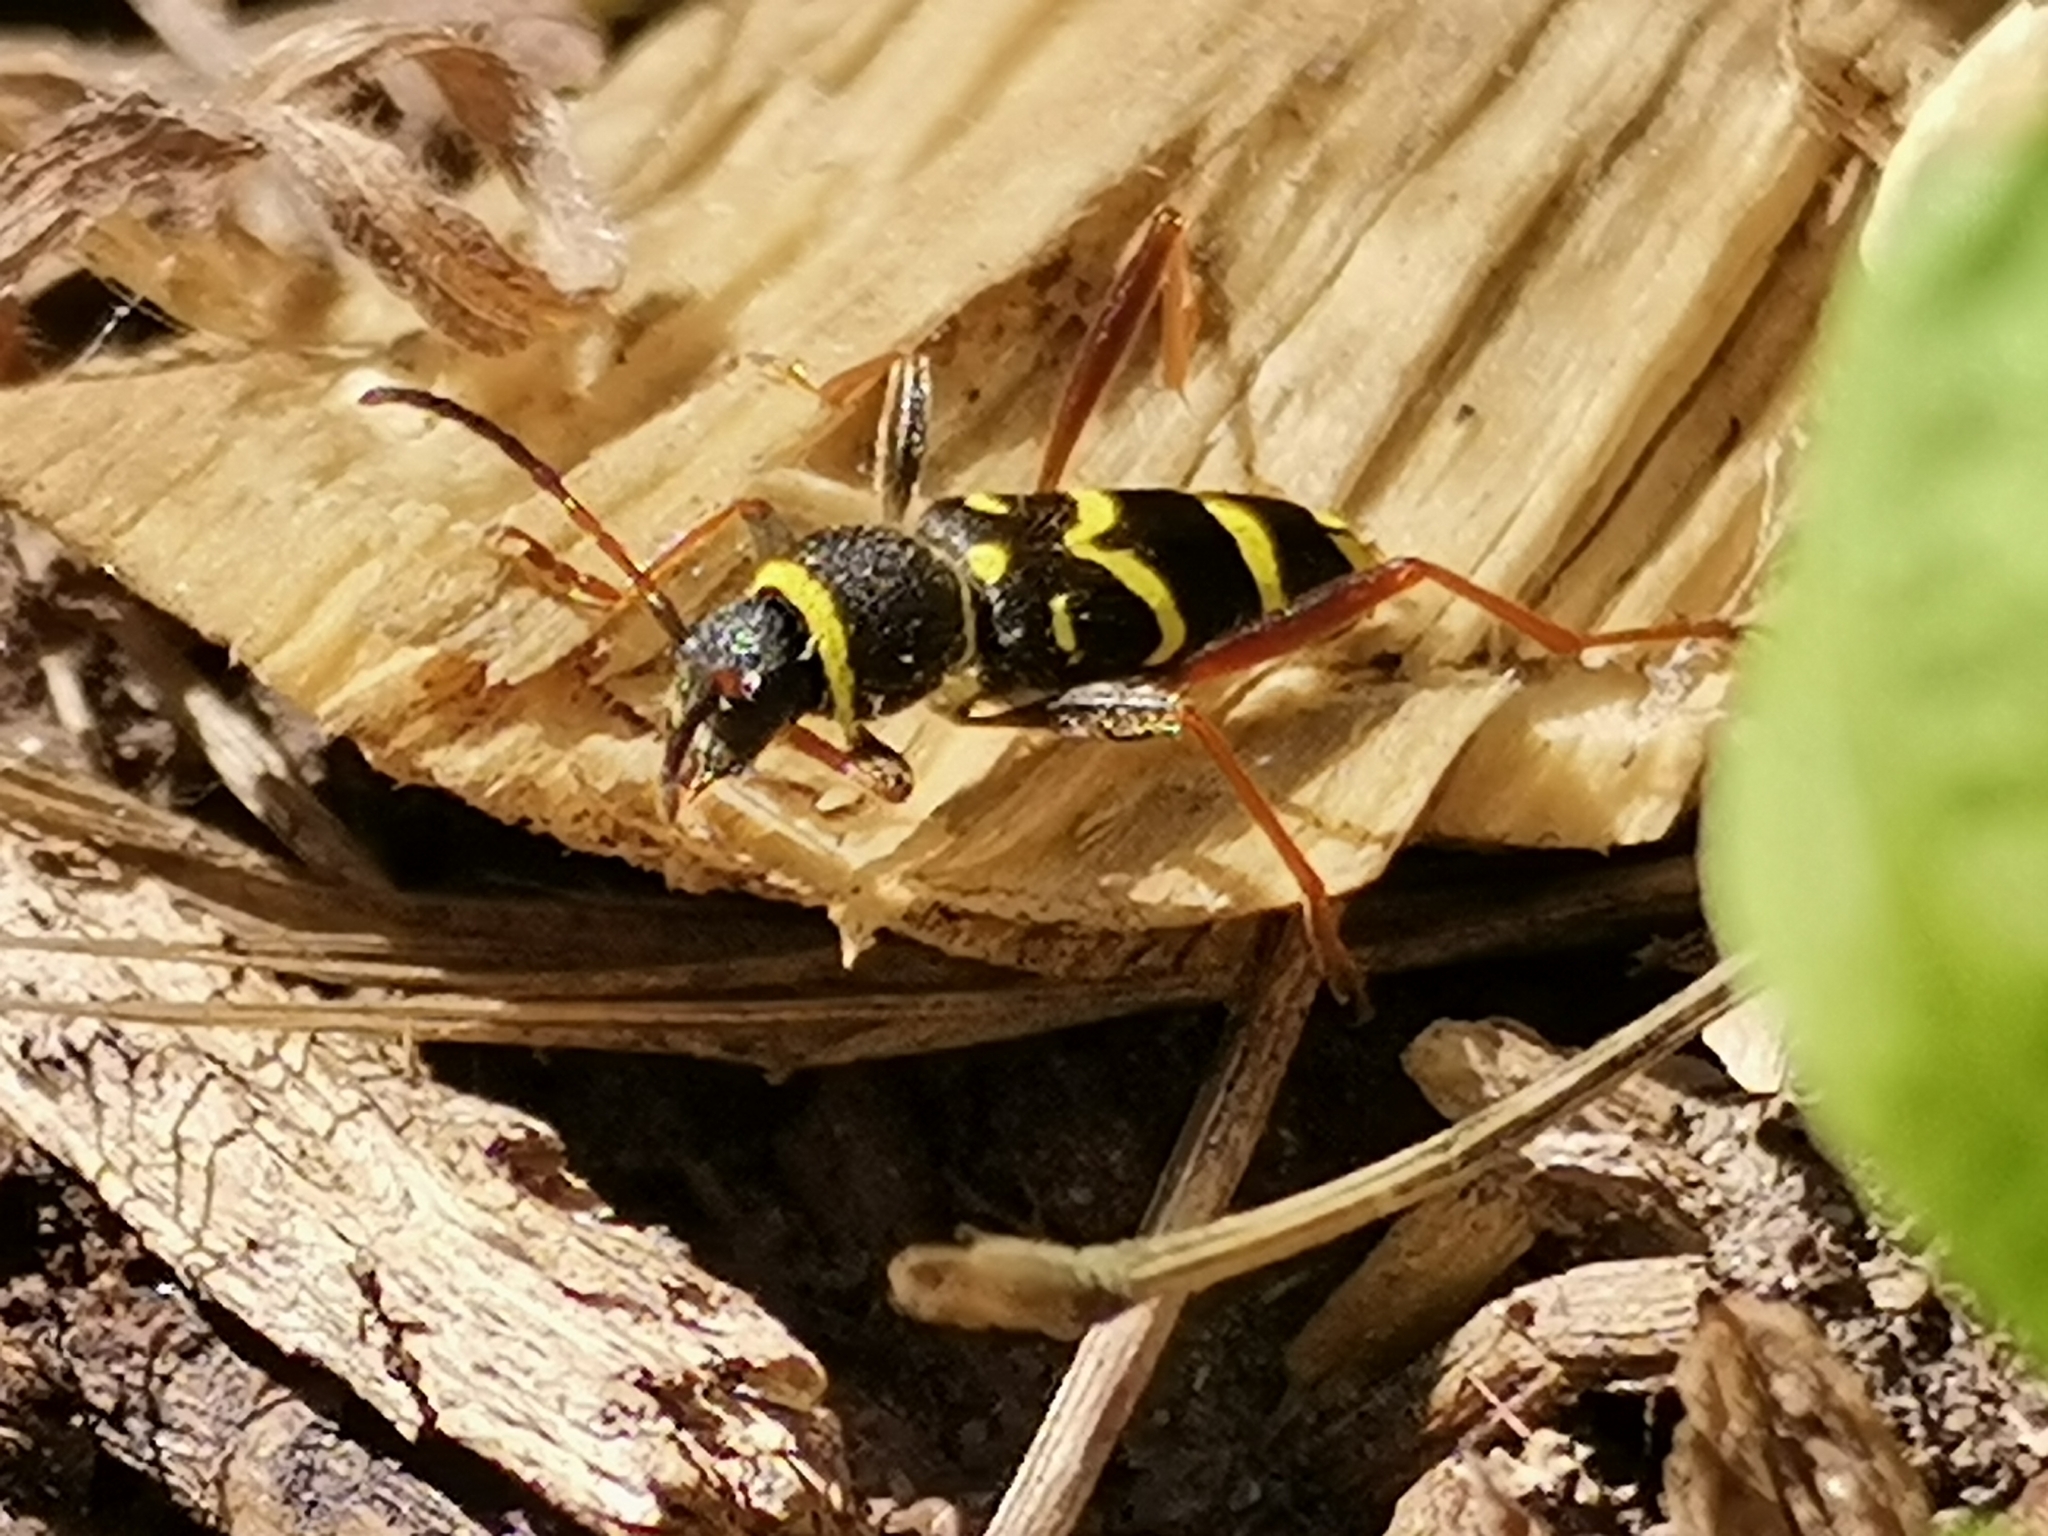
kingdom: Animalia
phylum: Arthropoda
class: Insecta
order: Coleoptera
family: Cerambycidae
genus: Clytus
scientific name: Clytus arietis
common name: Wasp beetle
